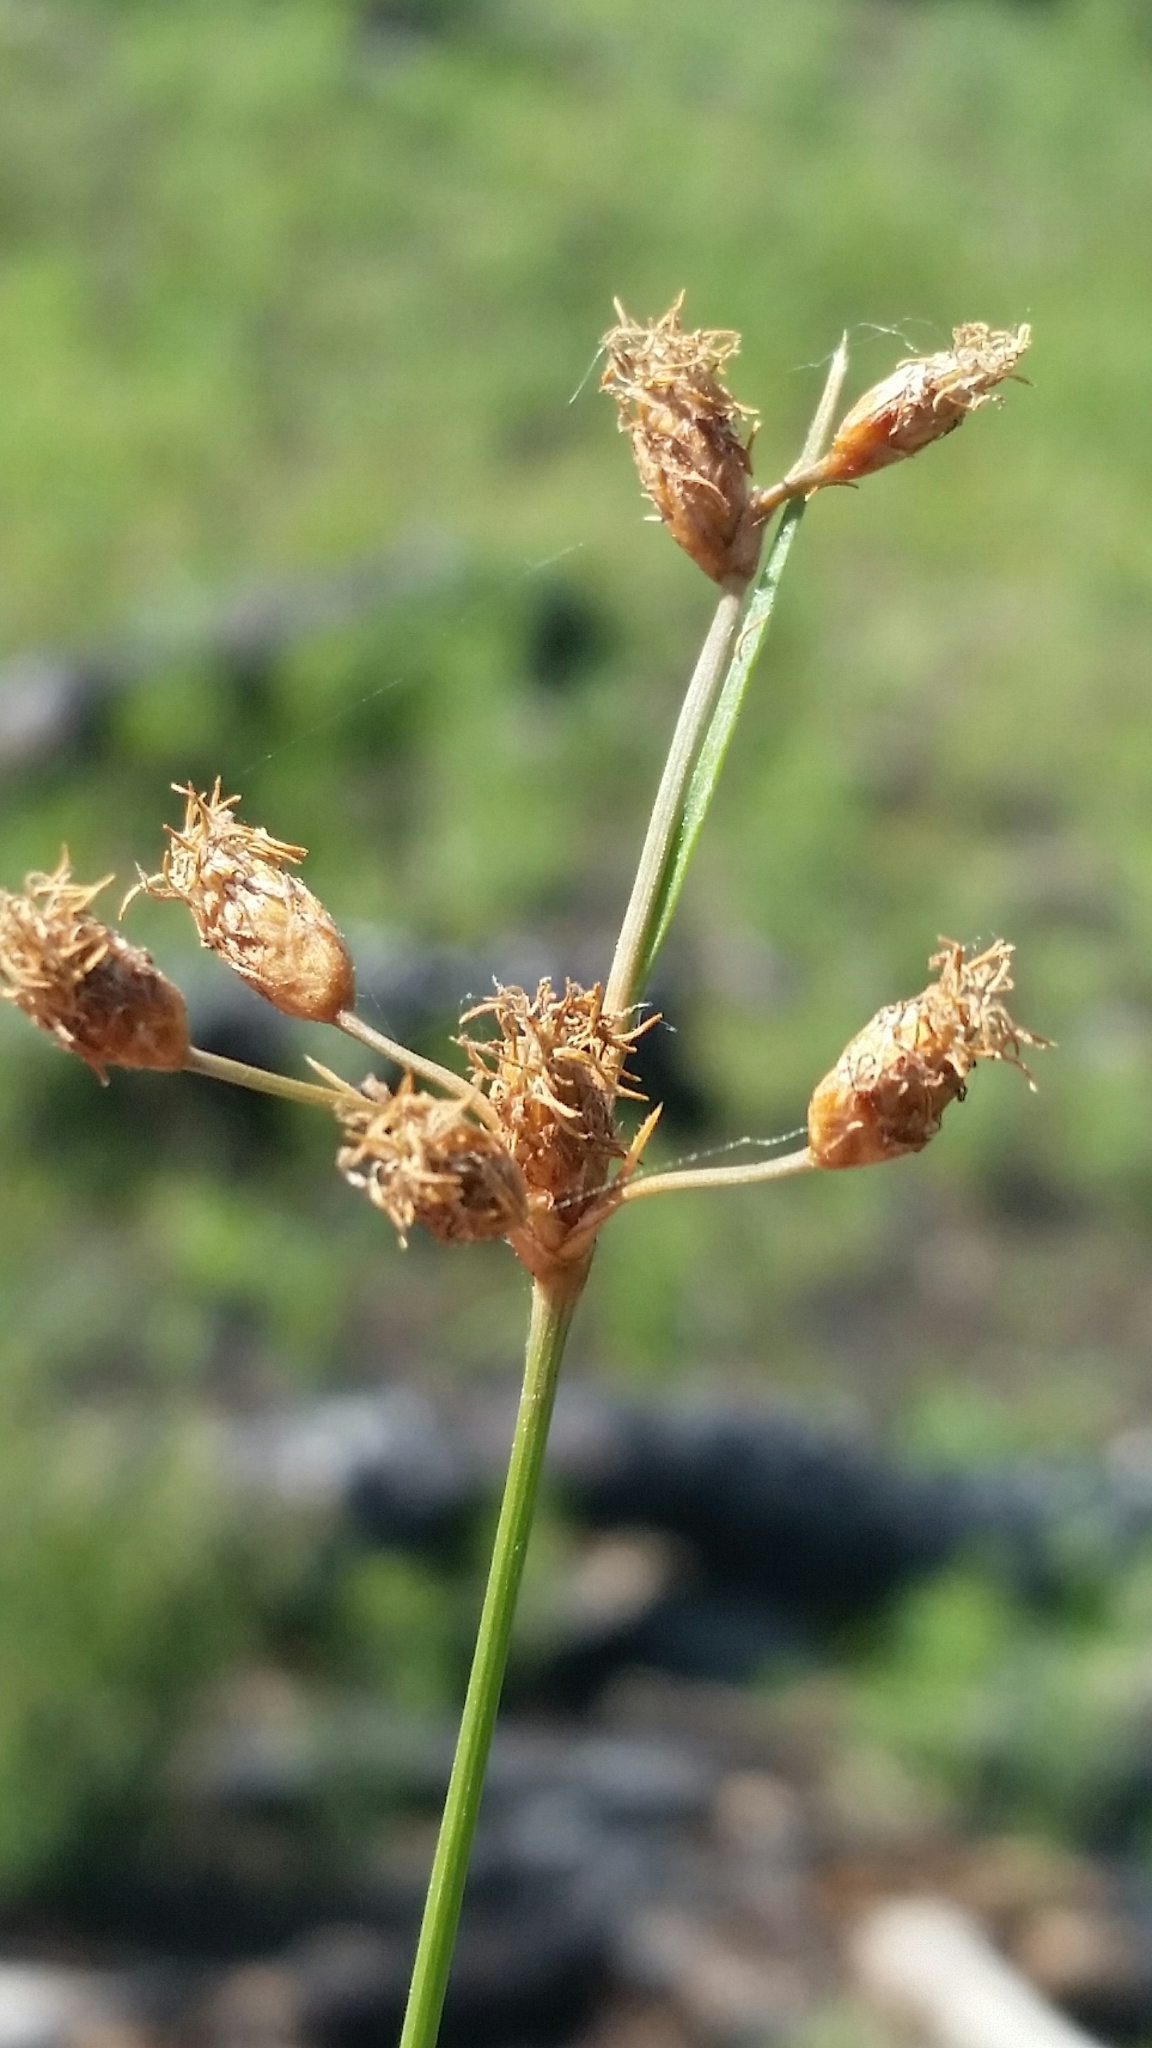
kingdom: Plantae
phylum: Tracheophyta
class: Liliopsida
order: Poales
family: Cyperaceae
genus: Fimbristylis
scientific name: Fimbristylis puberula
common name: Hairy fimbristylis
